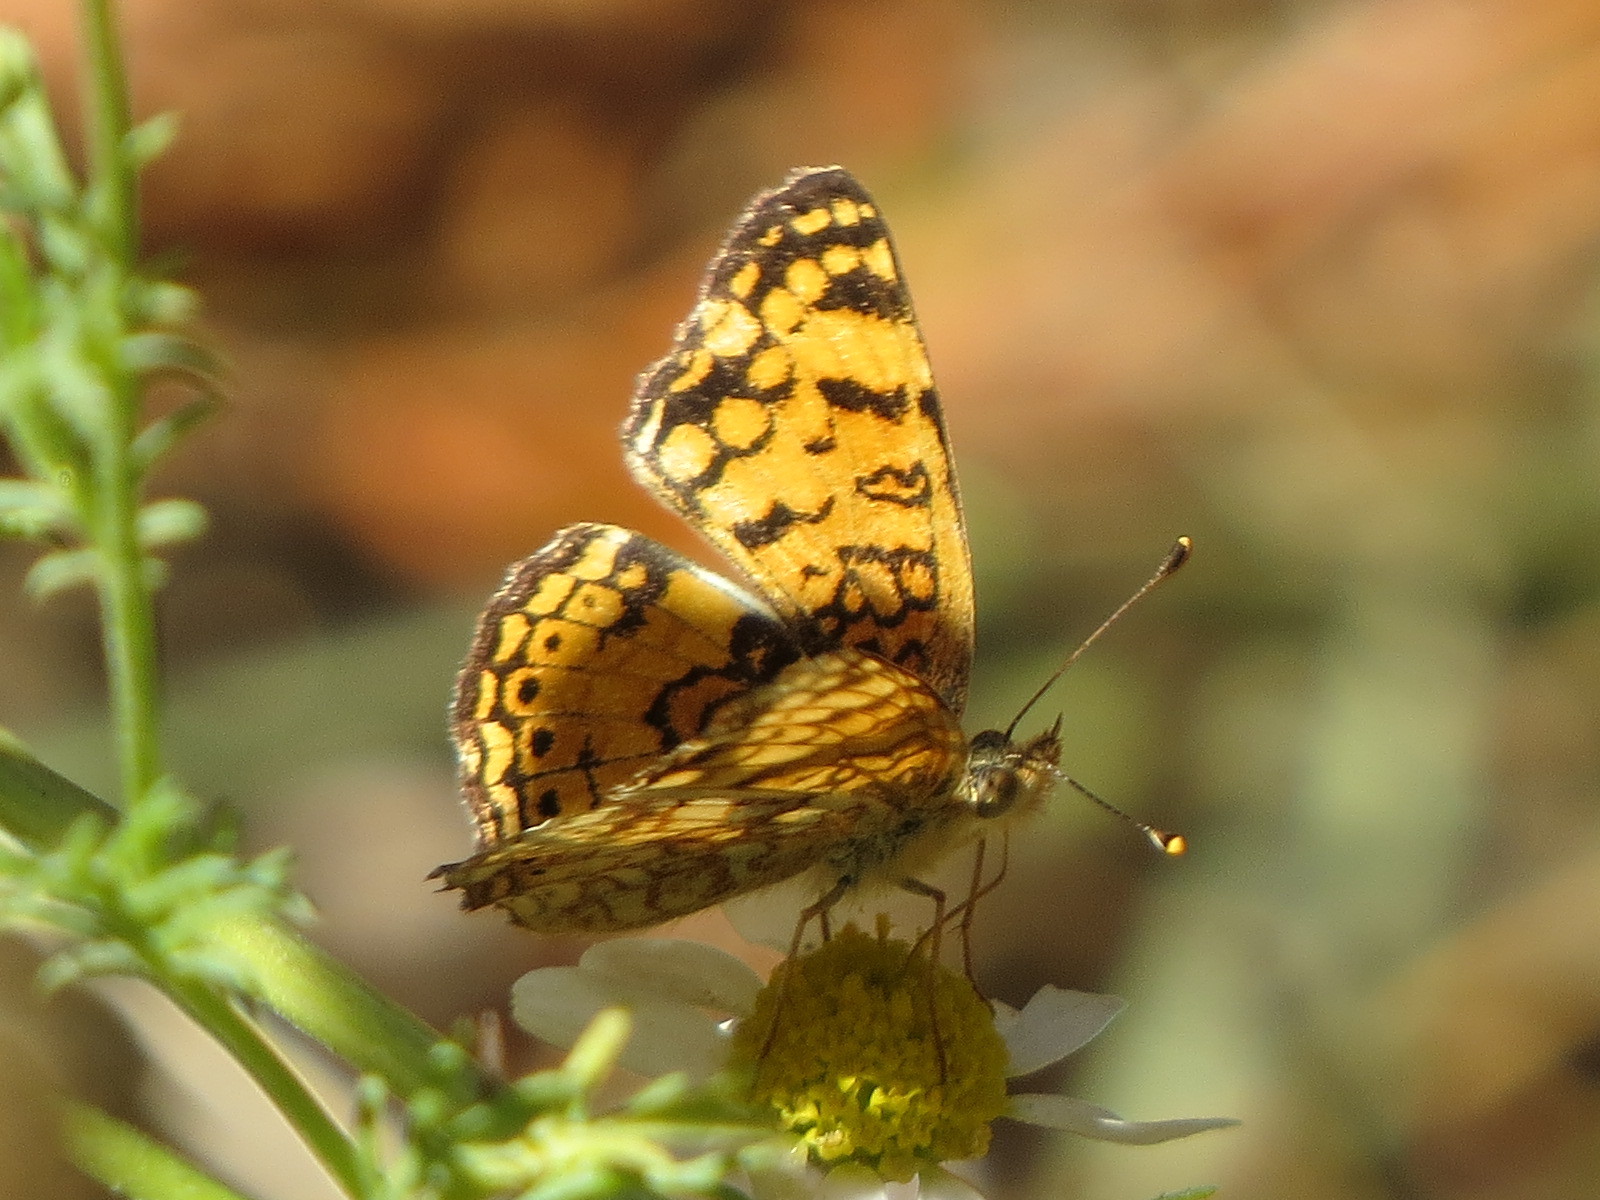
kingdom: Animalia
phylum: Arthropoda
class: Insecta
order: Lepidoptera
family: Nymphalidae
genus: Eresia
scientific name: Eresia aveyrona
